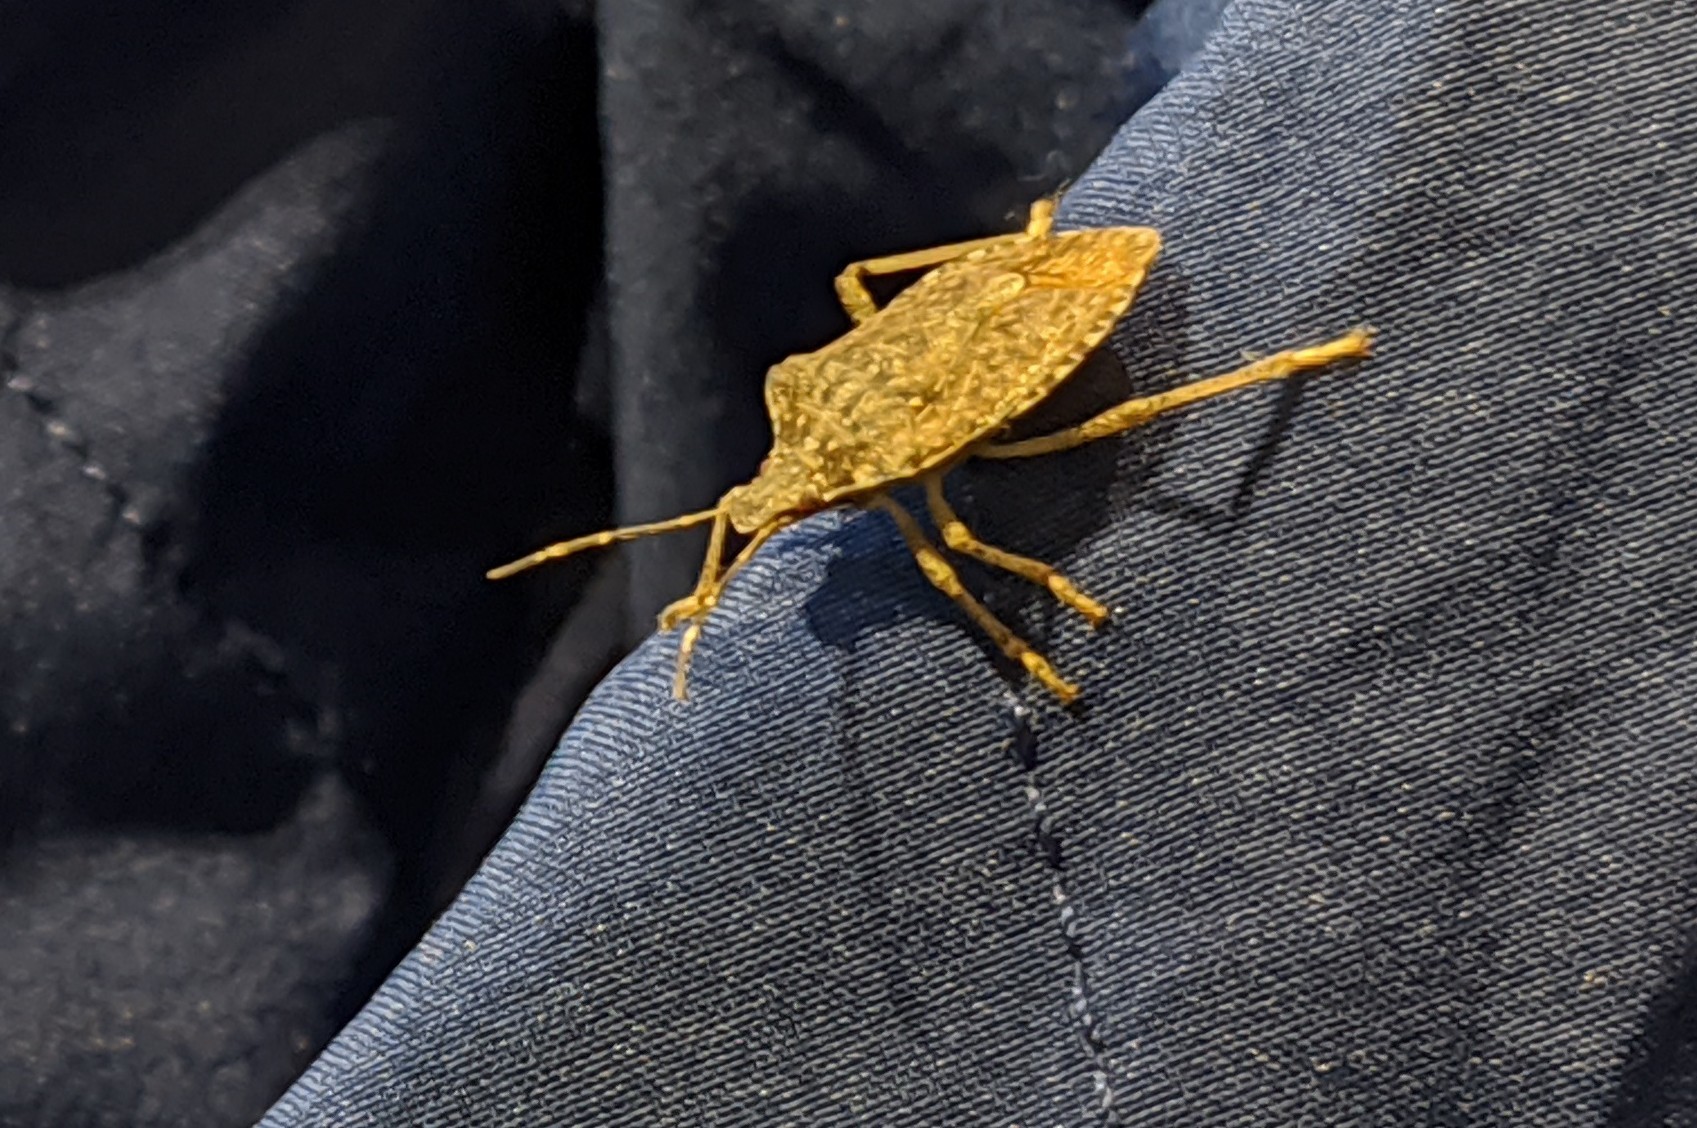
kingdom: Animalia
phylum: Arthropoda
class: Insecta
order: Hemiptera
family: Pentatomidae
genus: Halyomorpha
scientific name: Halyomorpha halys
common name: Brown marmorated stink bug
